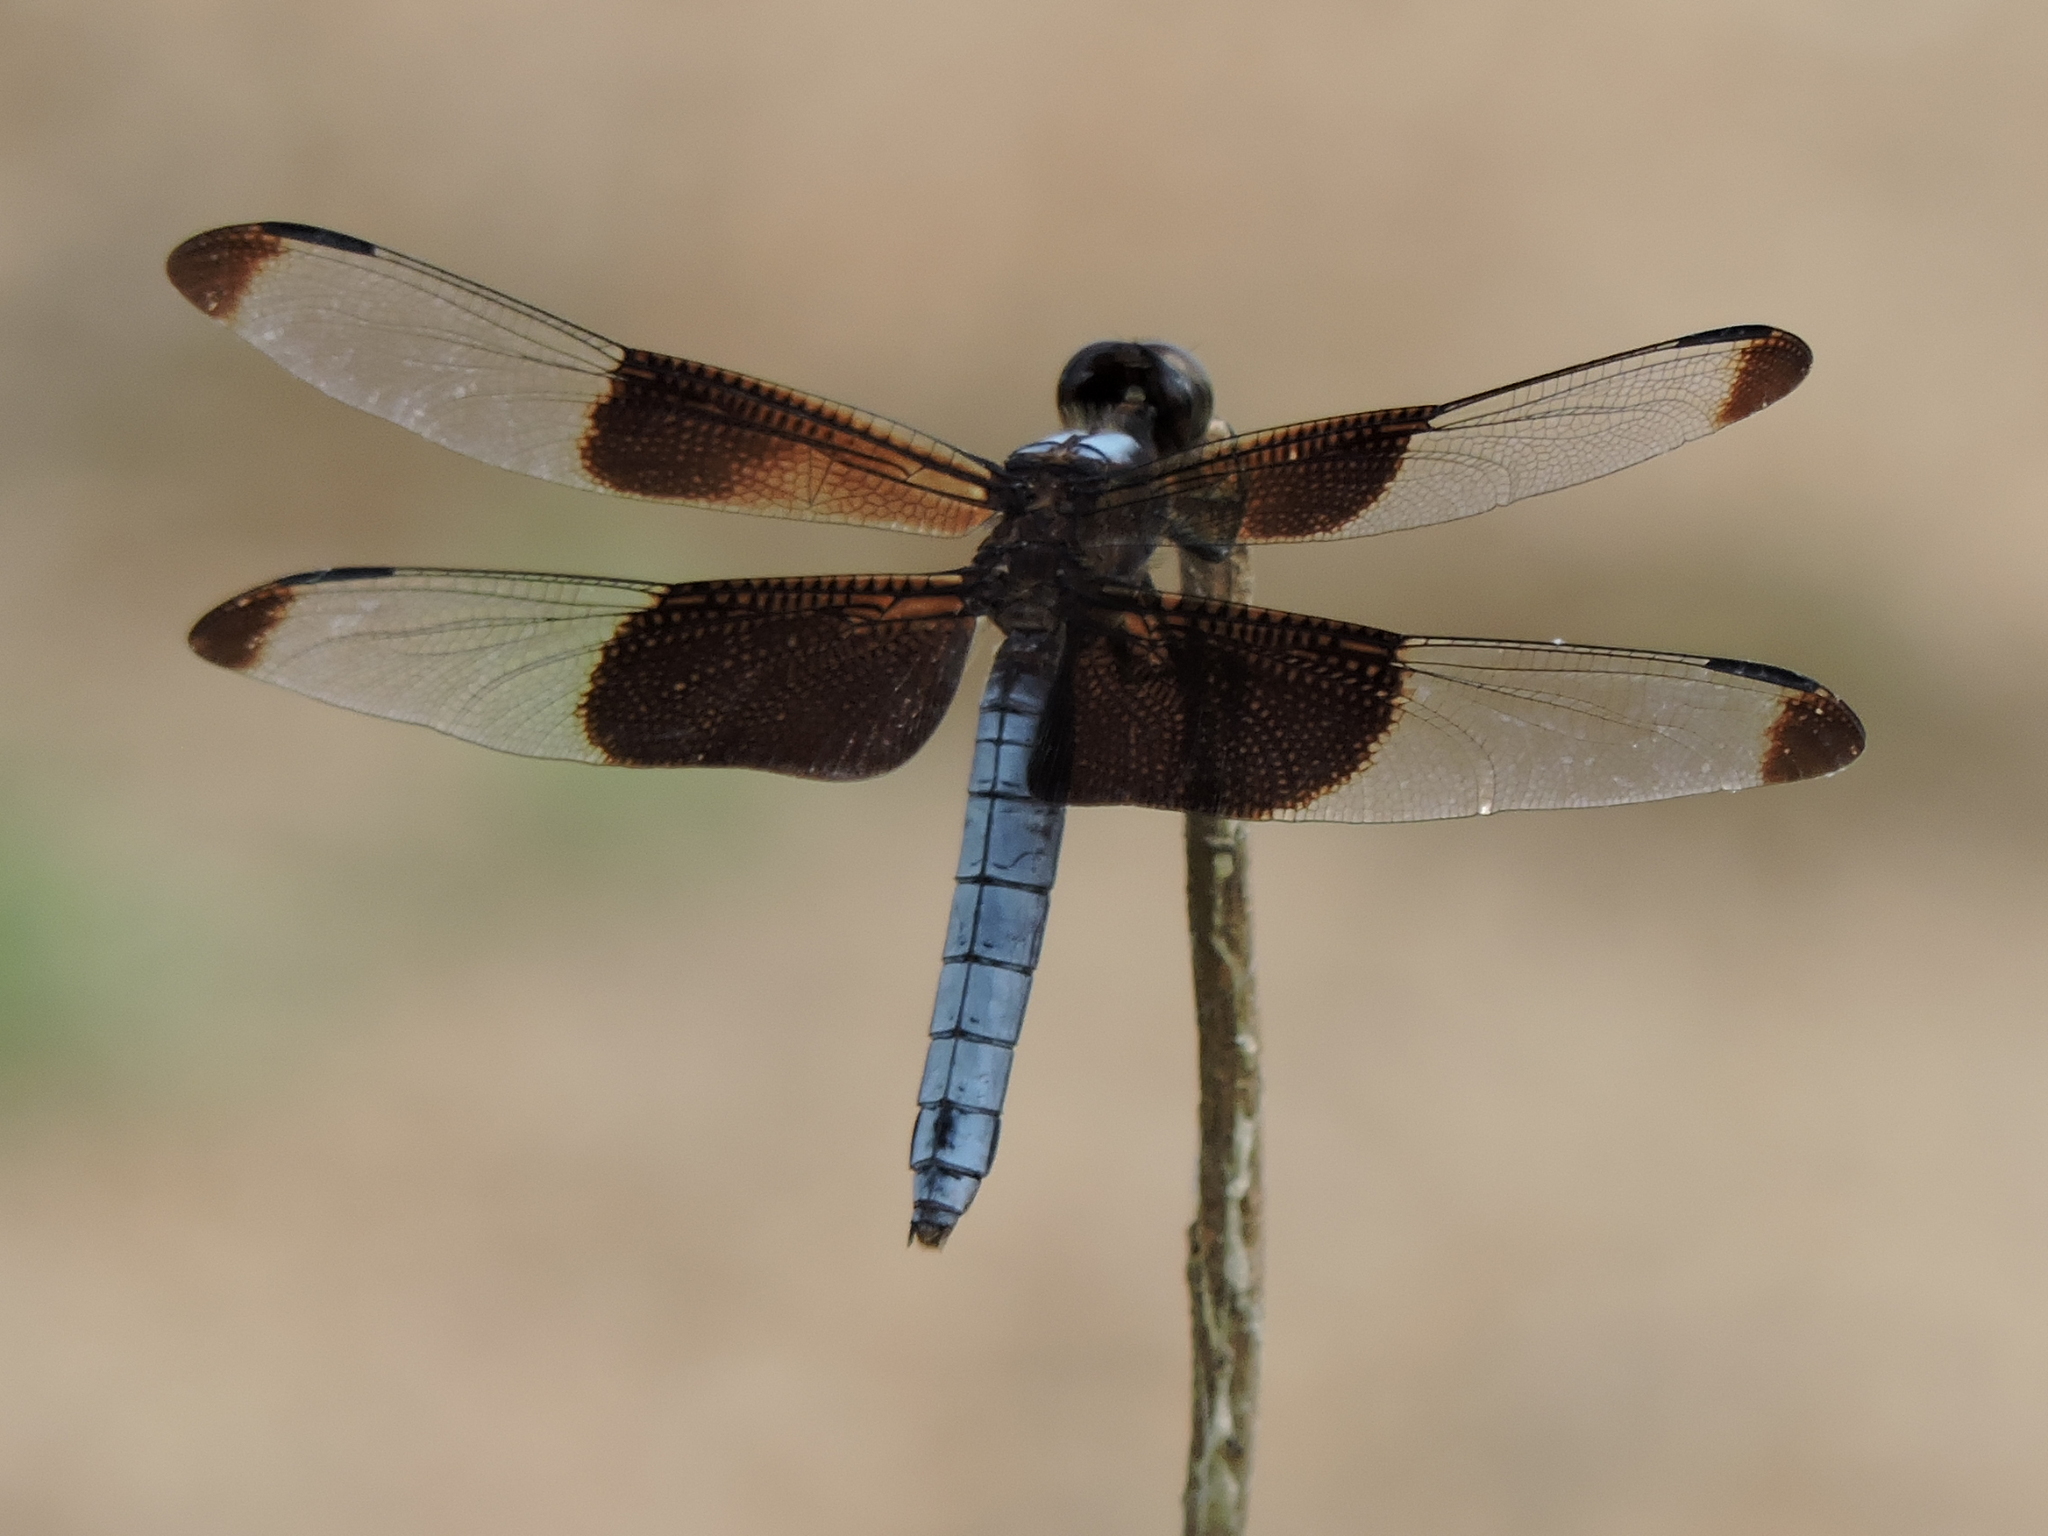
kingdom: Animalia
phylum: Arthropoda
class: Insecta
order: Odonata
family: Libellulidae
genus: Libellula
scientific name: Libellula luctuosa
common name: Widow skimmer
